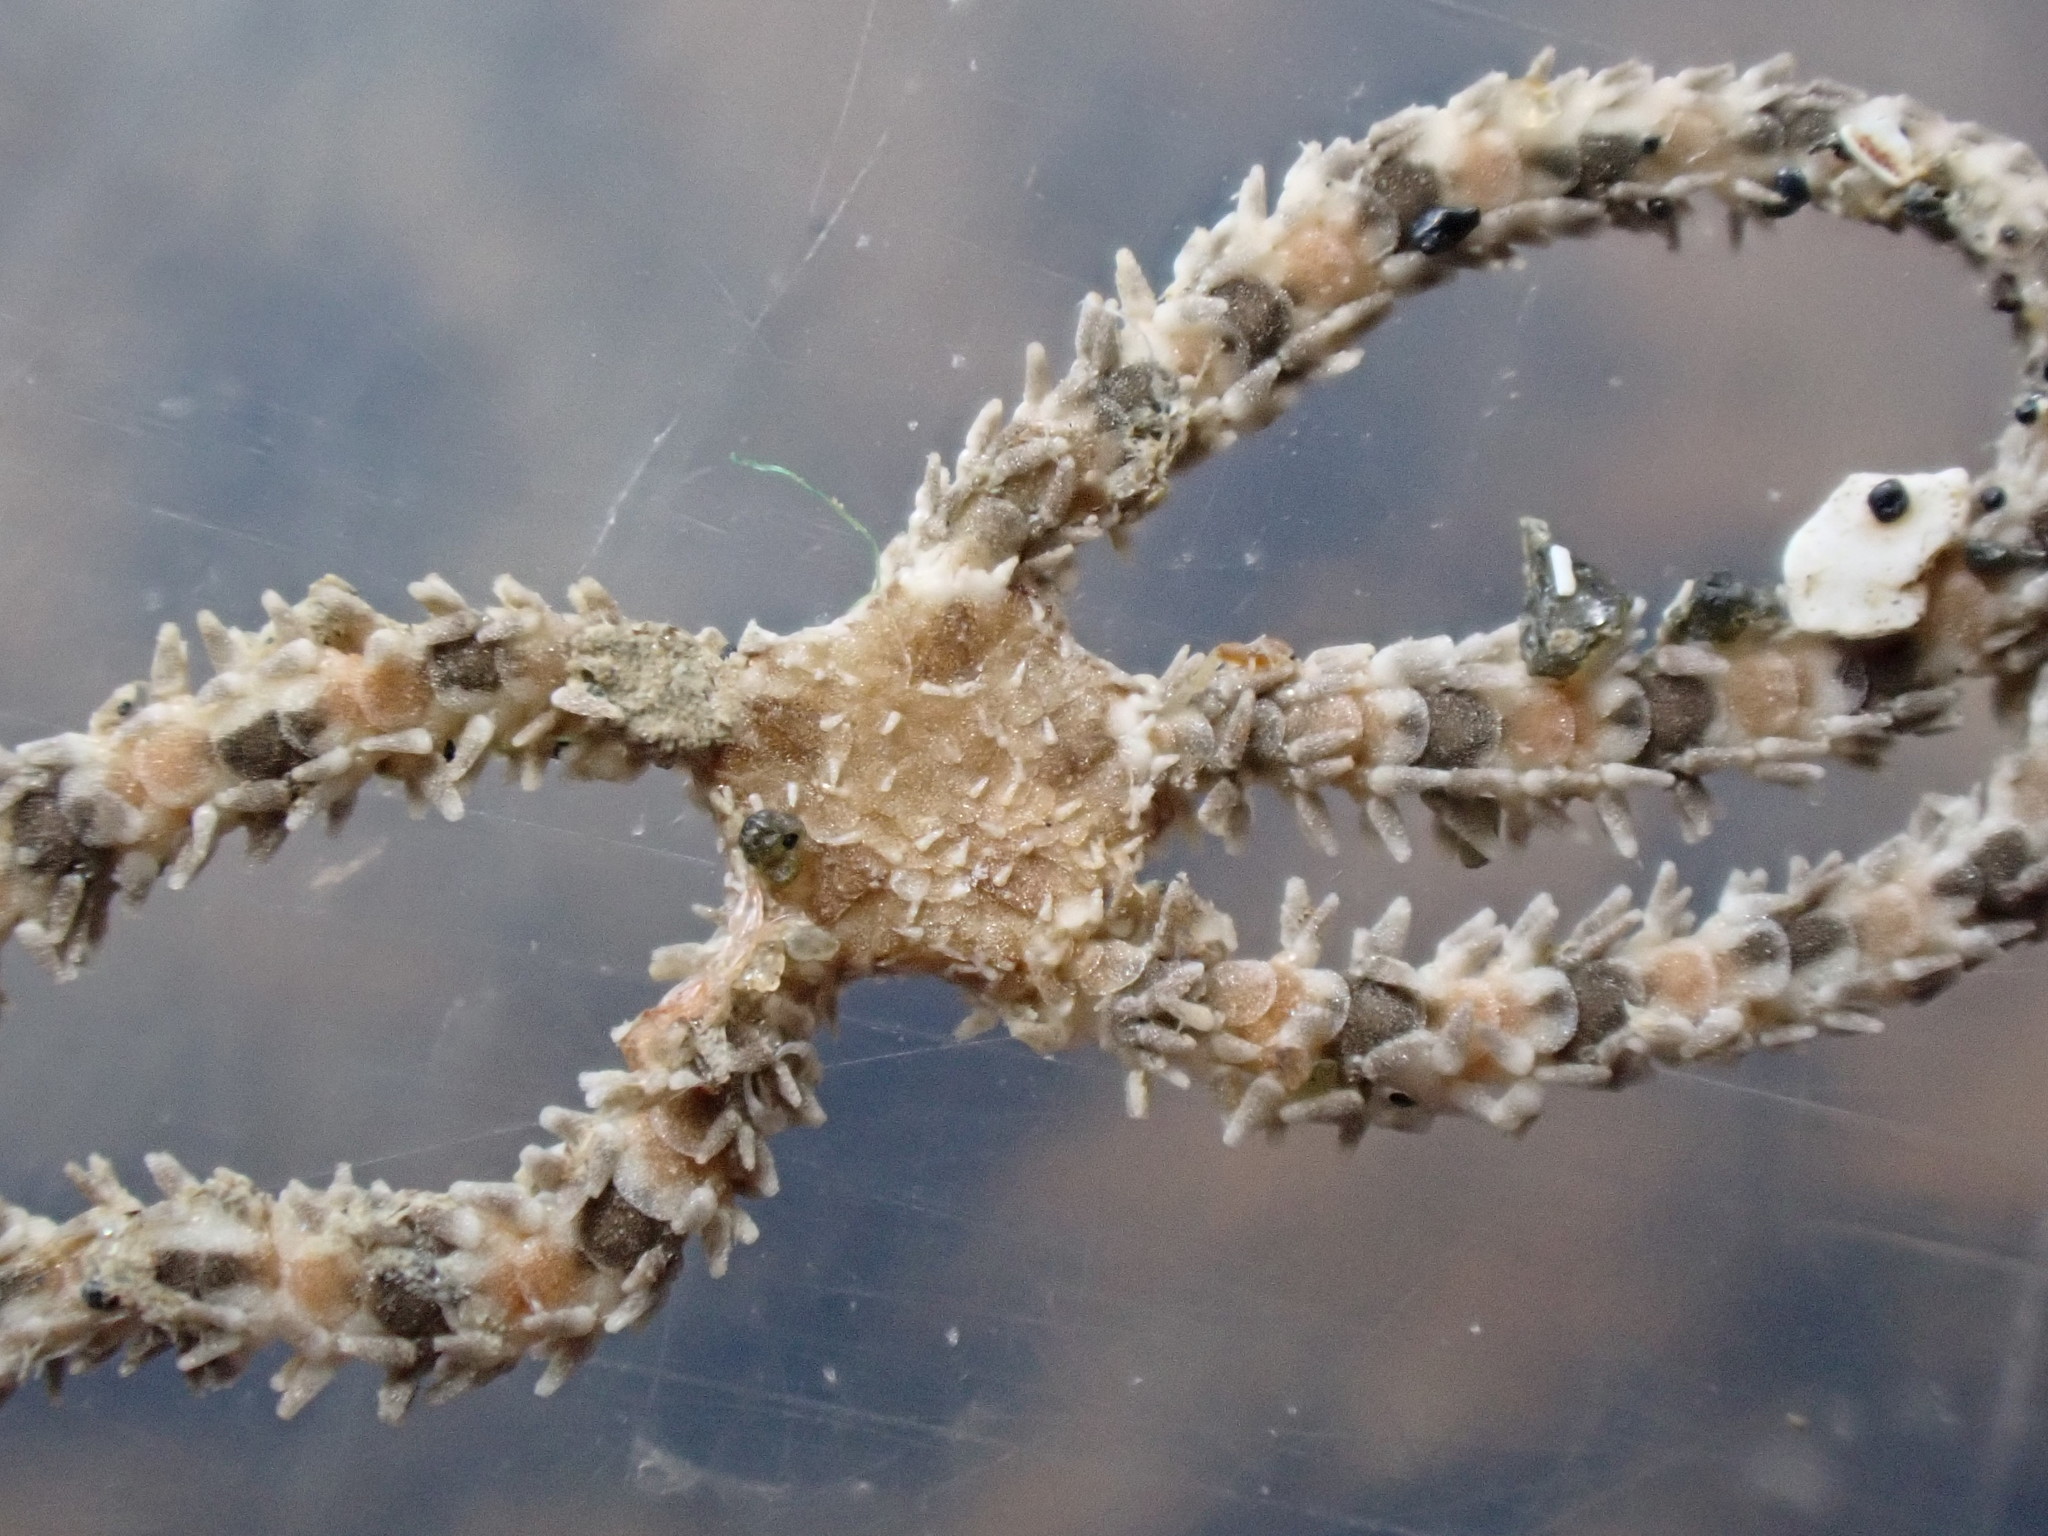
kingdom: Animalia
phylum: Echinodermata
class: Ophiuroidea
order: Amphilepidida
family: Ophiactidae
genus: Ophiactis
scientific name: Ophiactis resiliens
